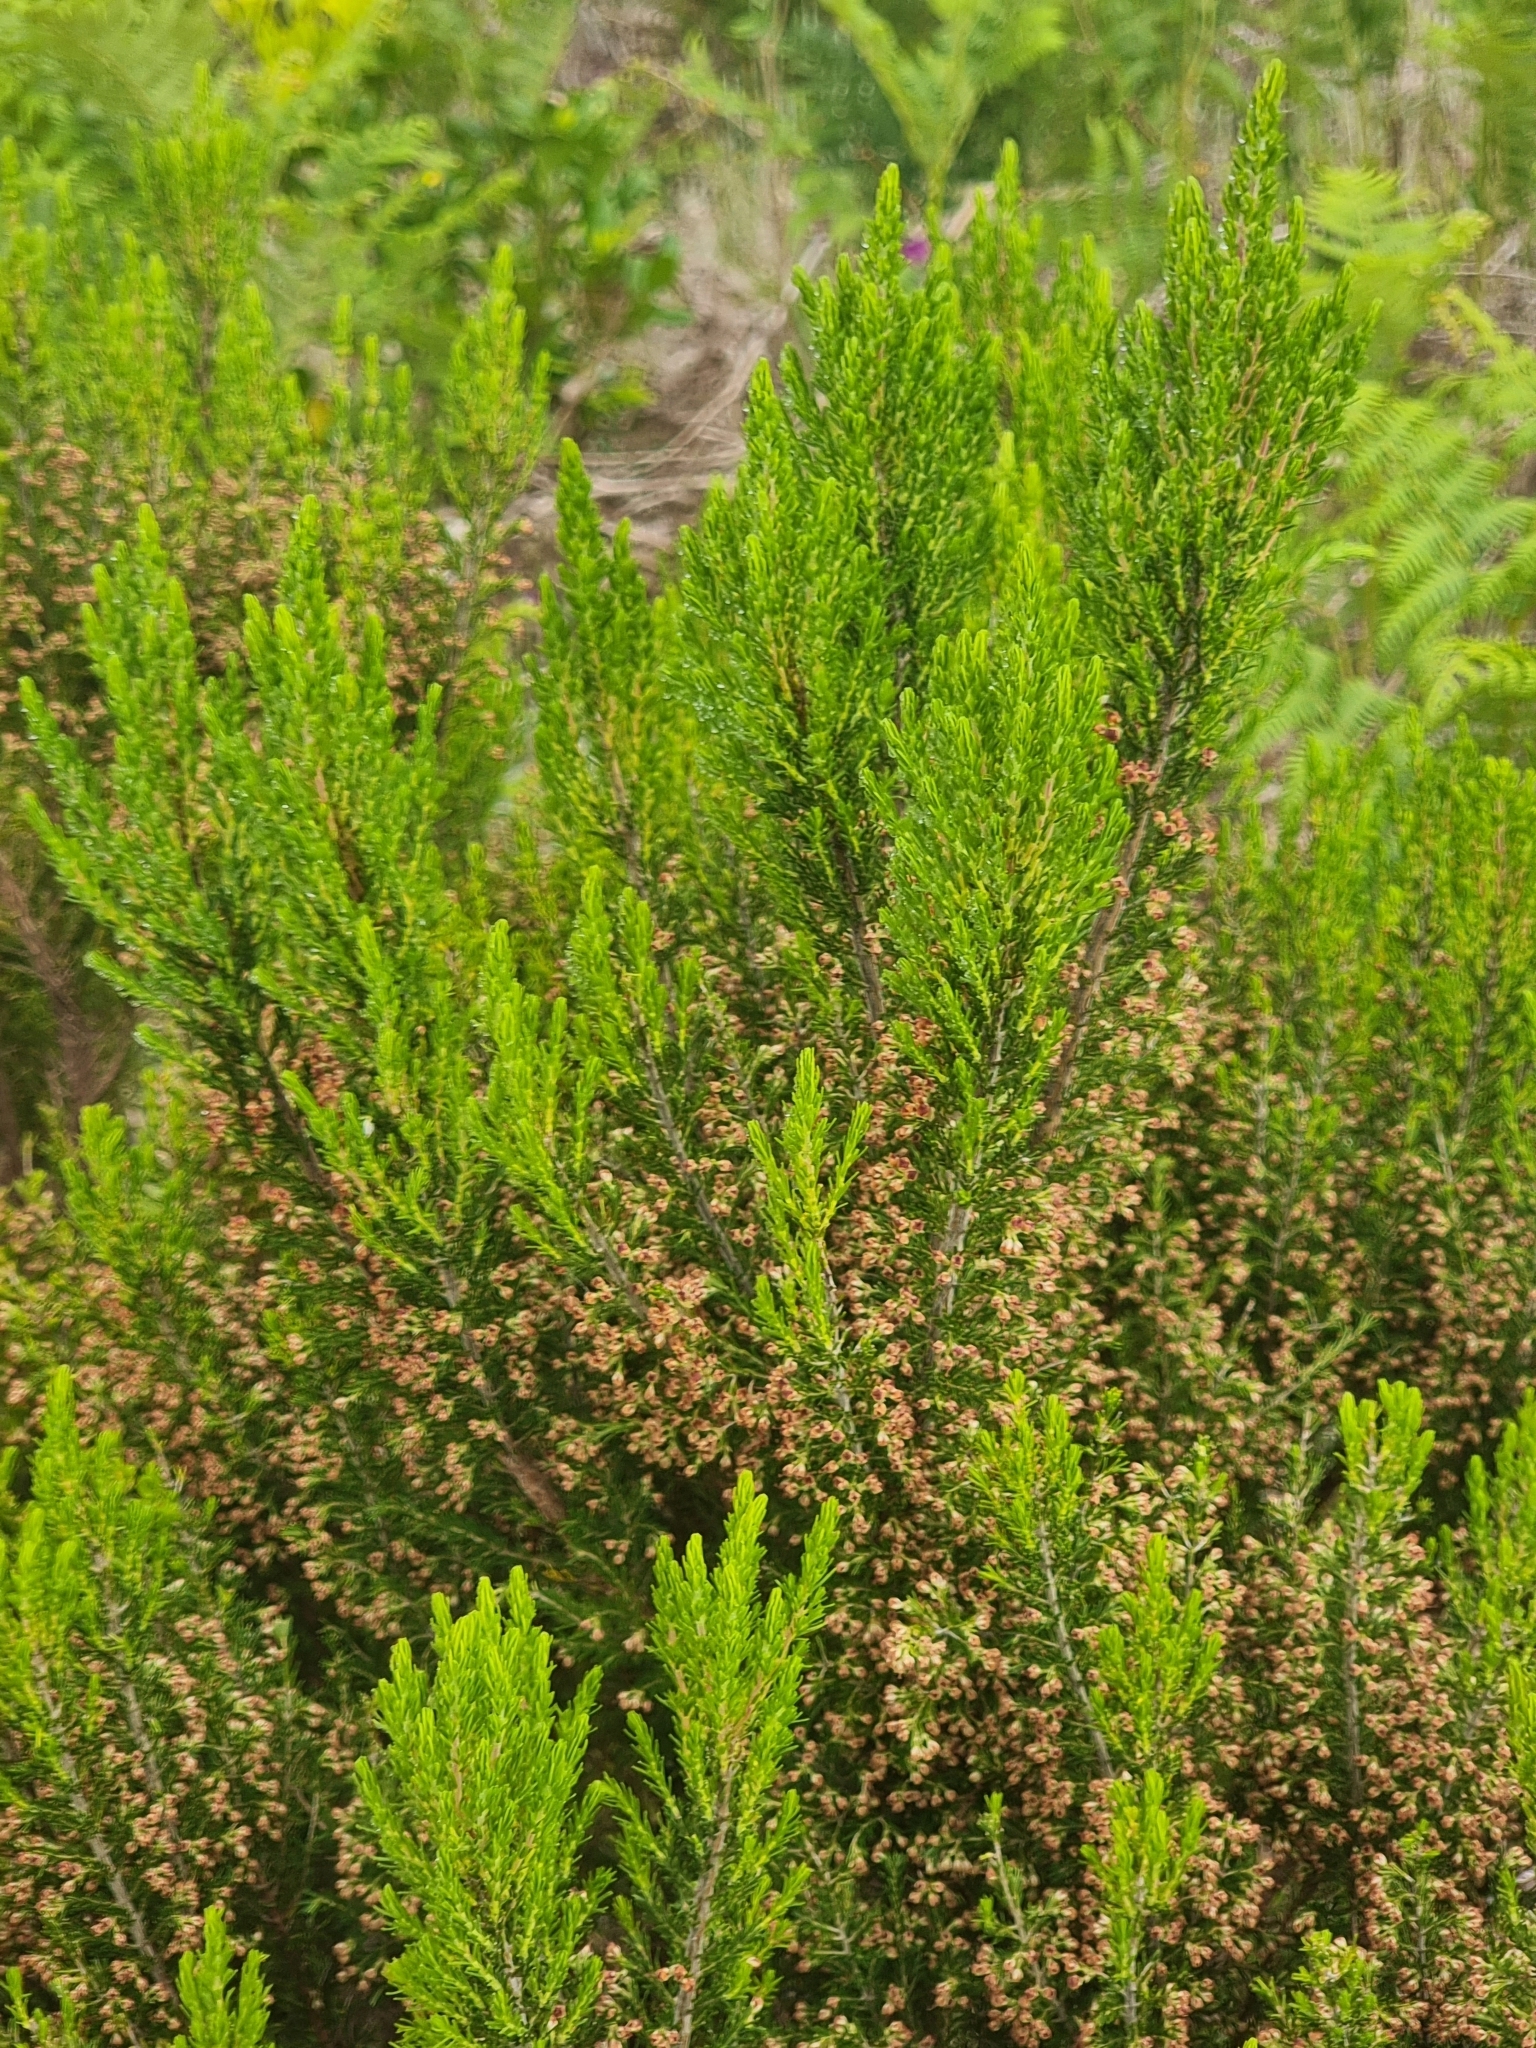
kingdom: Plantae
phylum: Tracheophyta
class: Magnoliopsida
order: Ericales
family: Ericaceae
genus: Erica
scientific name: Erica canariensis
